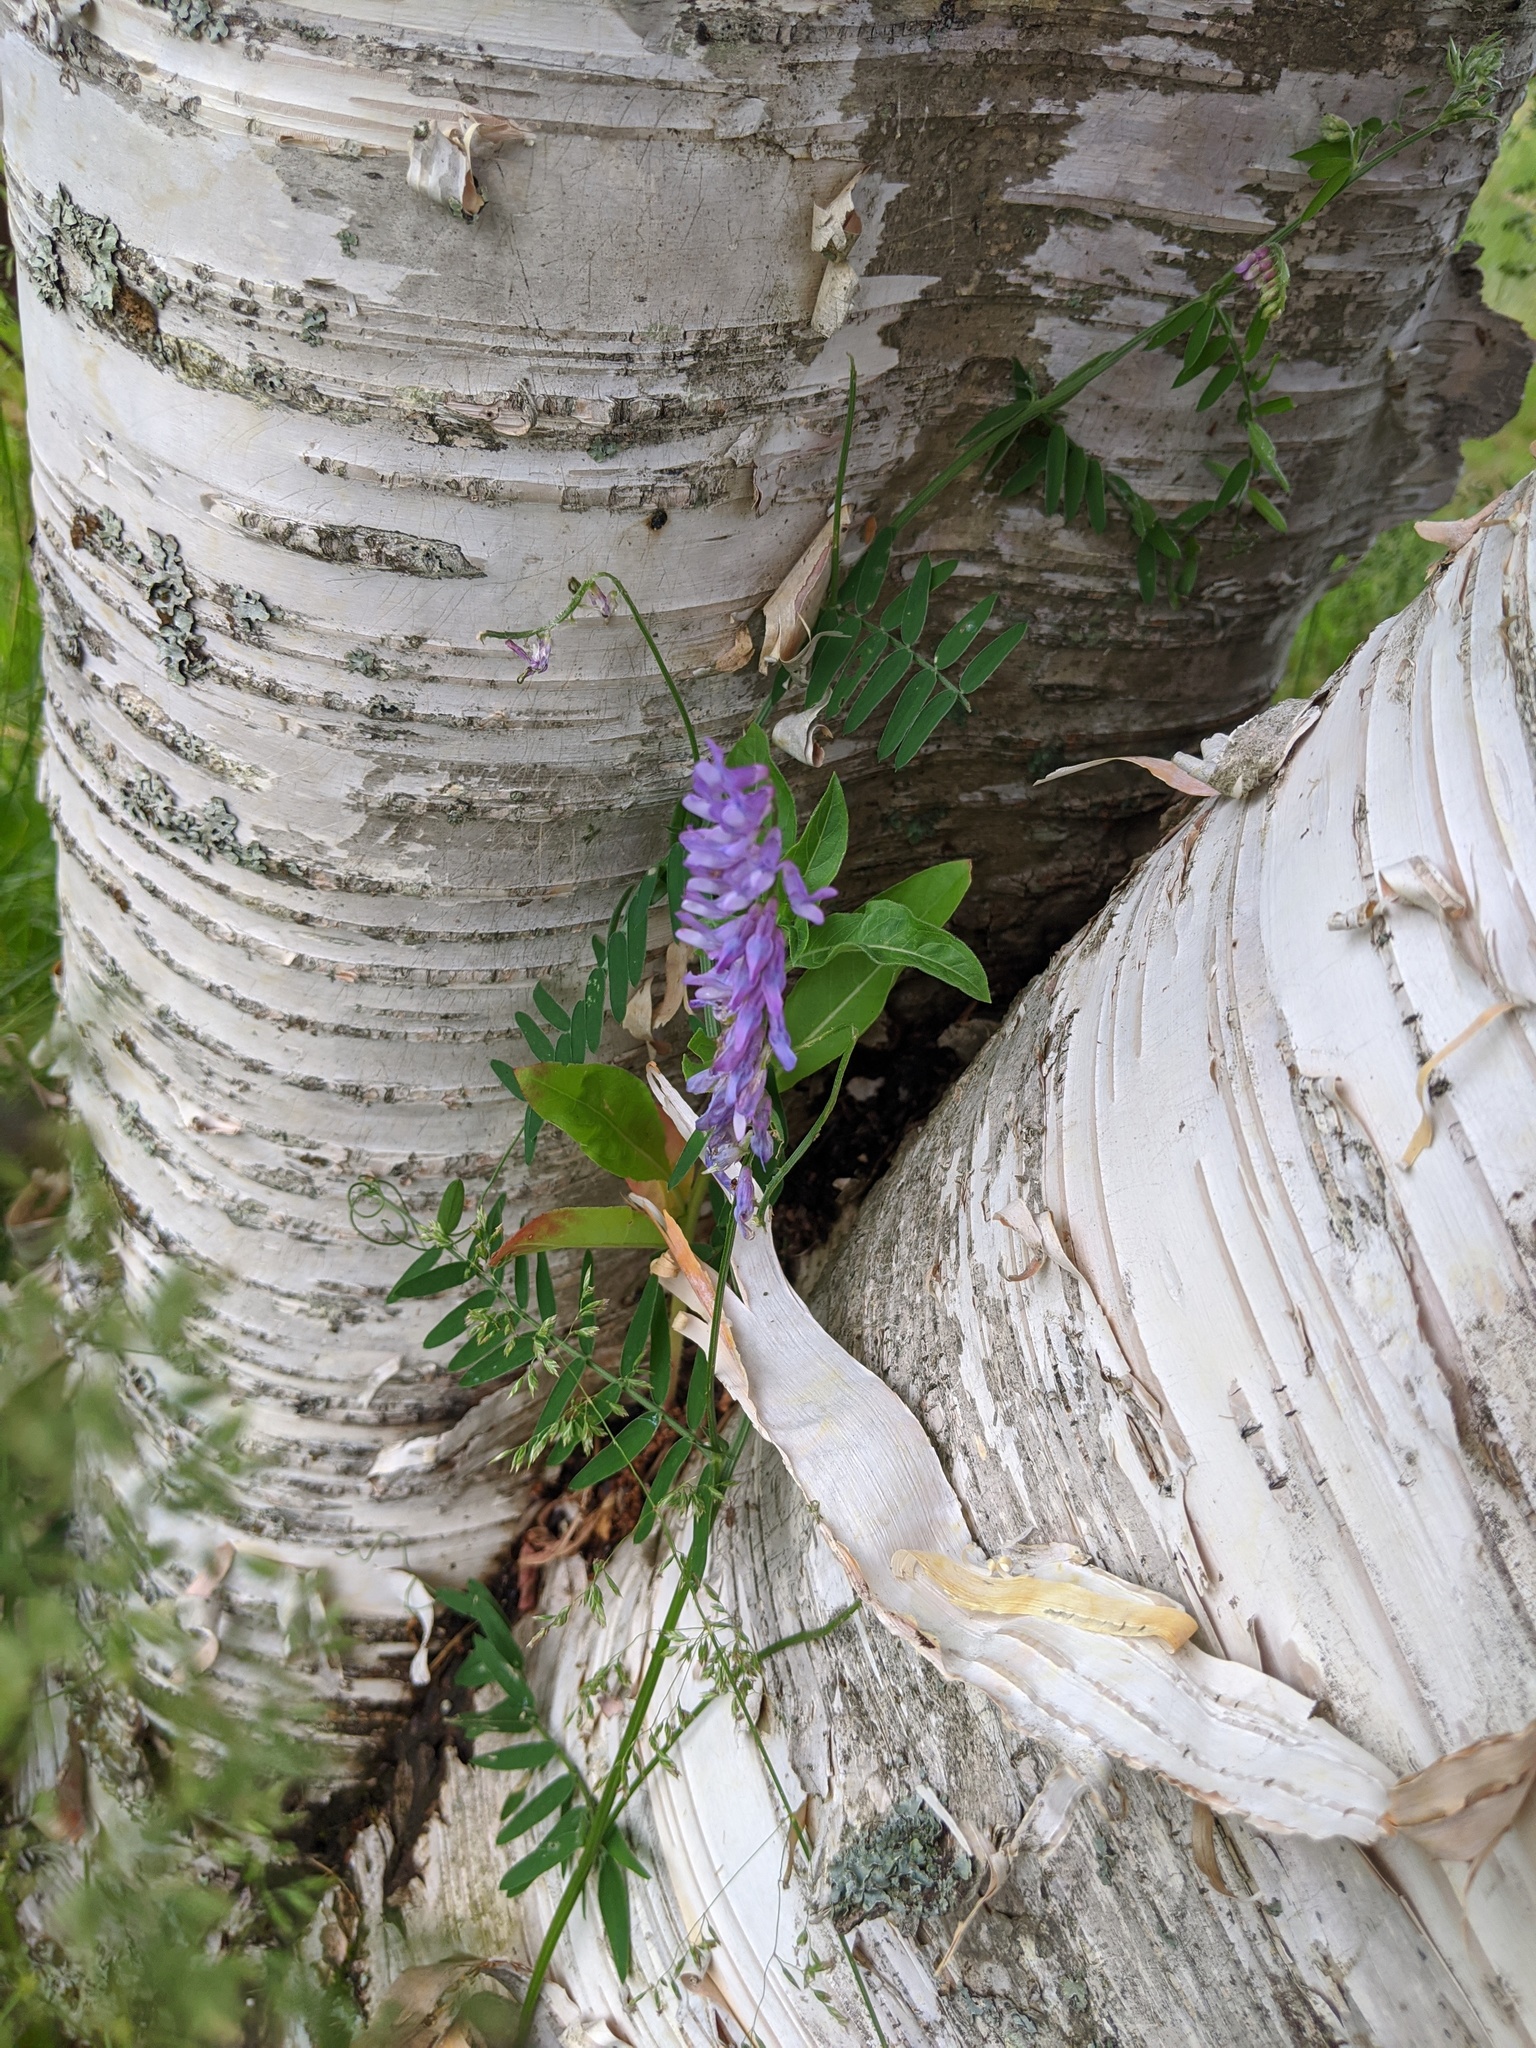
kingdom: Plantae
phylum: Tracheophyta
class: Magnoliopsida
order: Fabales
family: Fabaceae
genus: Vicia
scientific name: Vicia cracca
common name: Bird vetch
